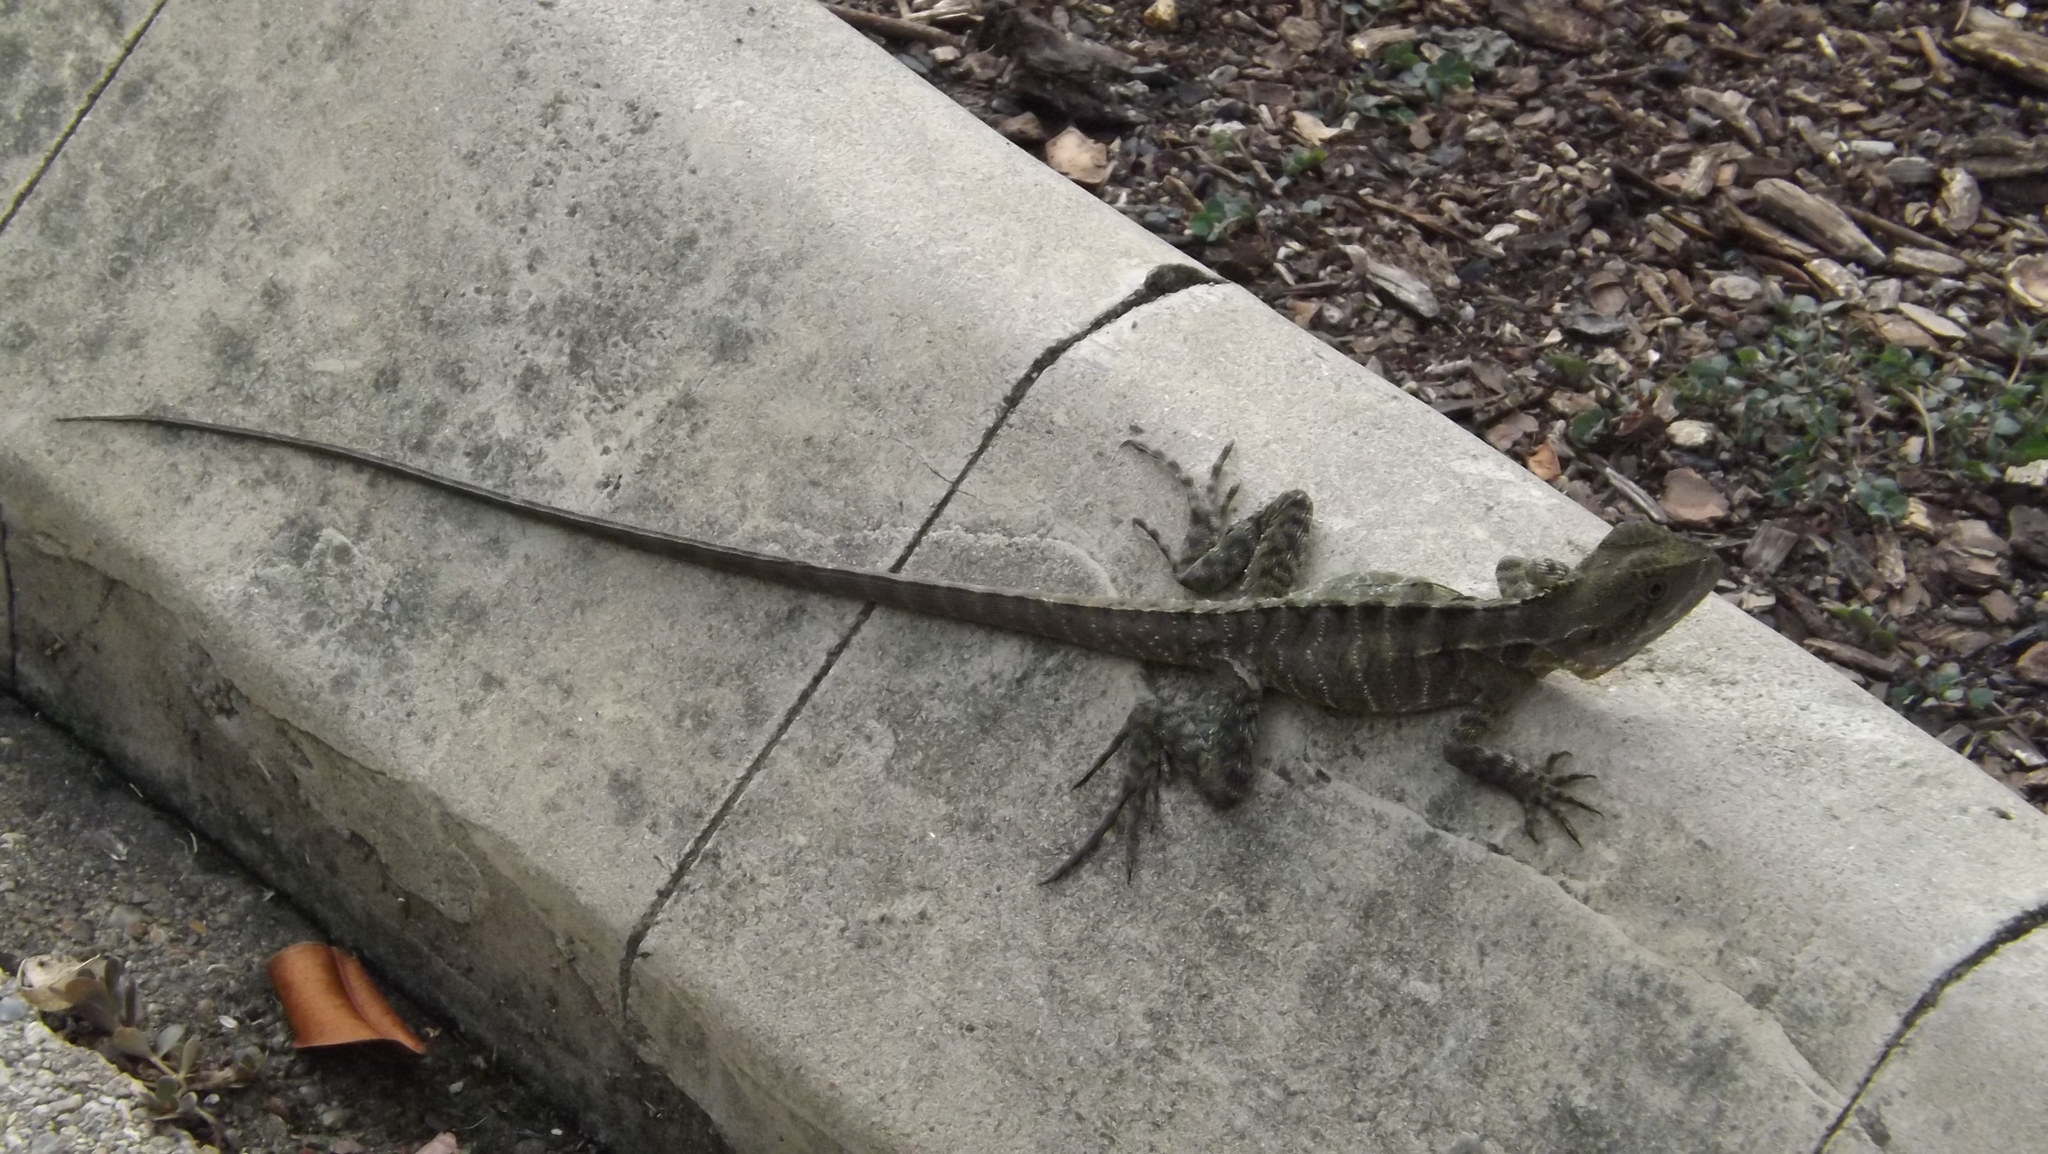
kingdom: Animalia
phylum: Chordata
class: Squamata
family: Agamidae
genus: Intellagama
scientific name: Intellagama lesueurii
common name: Eastern water dragon
